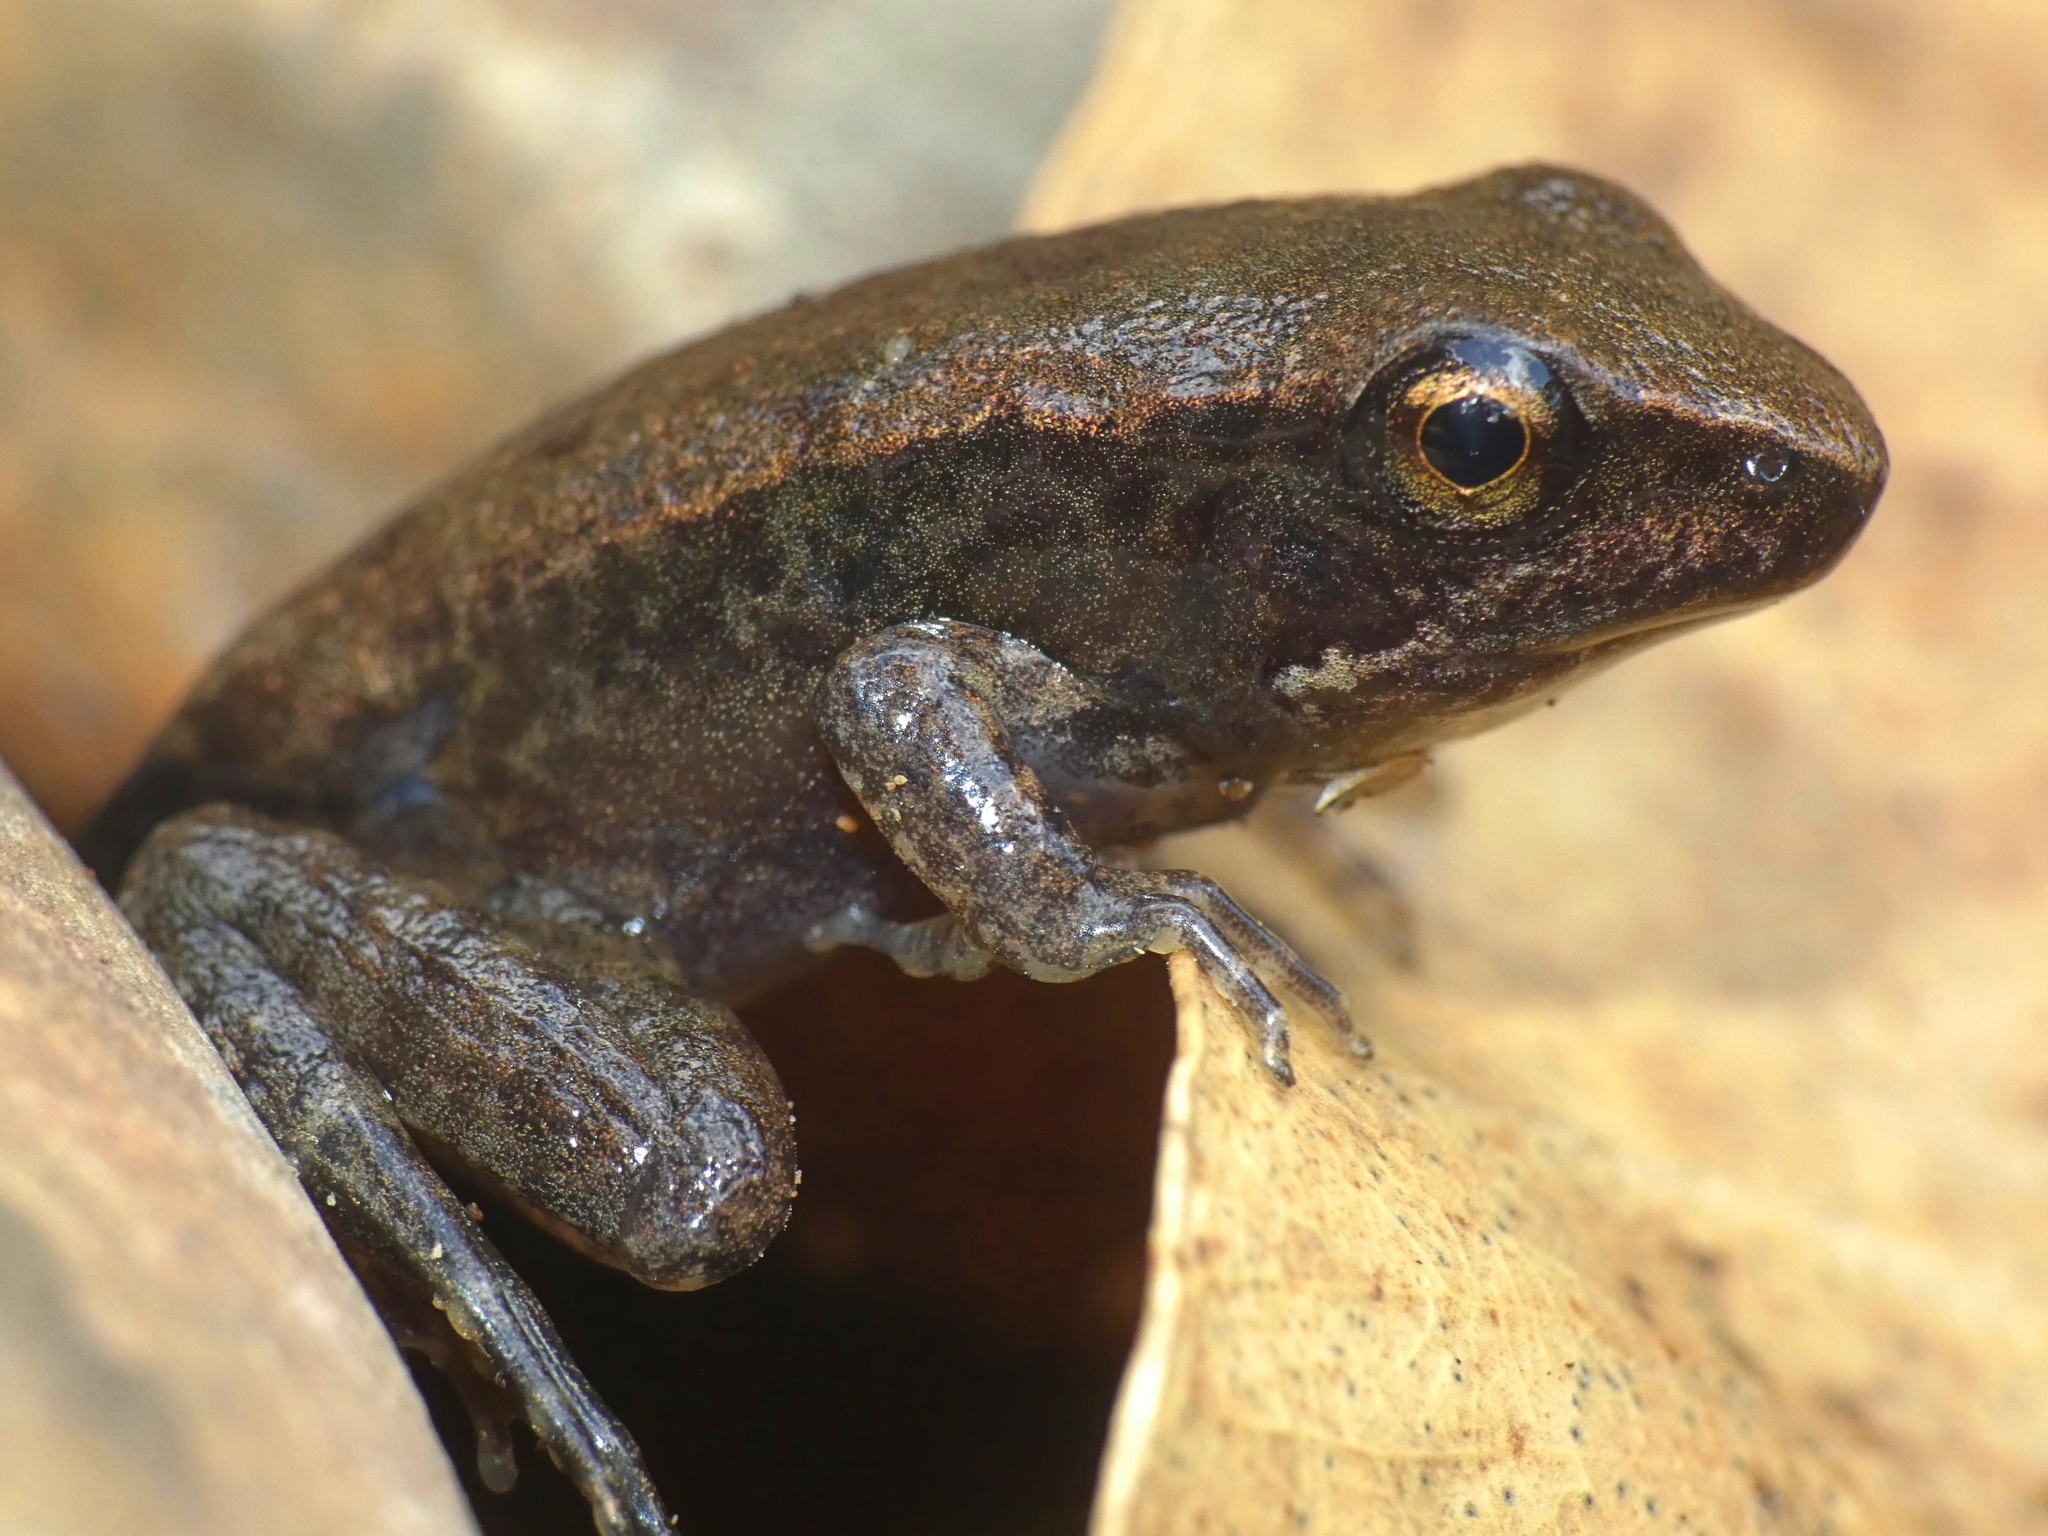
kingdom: Animalia
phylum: Chordata
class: Amphibia
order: Anura
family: Ranidae
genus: Papurana
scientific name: Papurana daemeli
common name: Arhem rana
